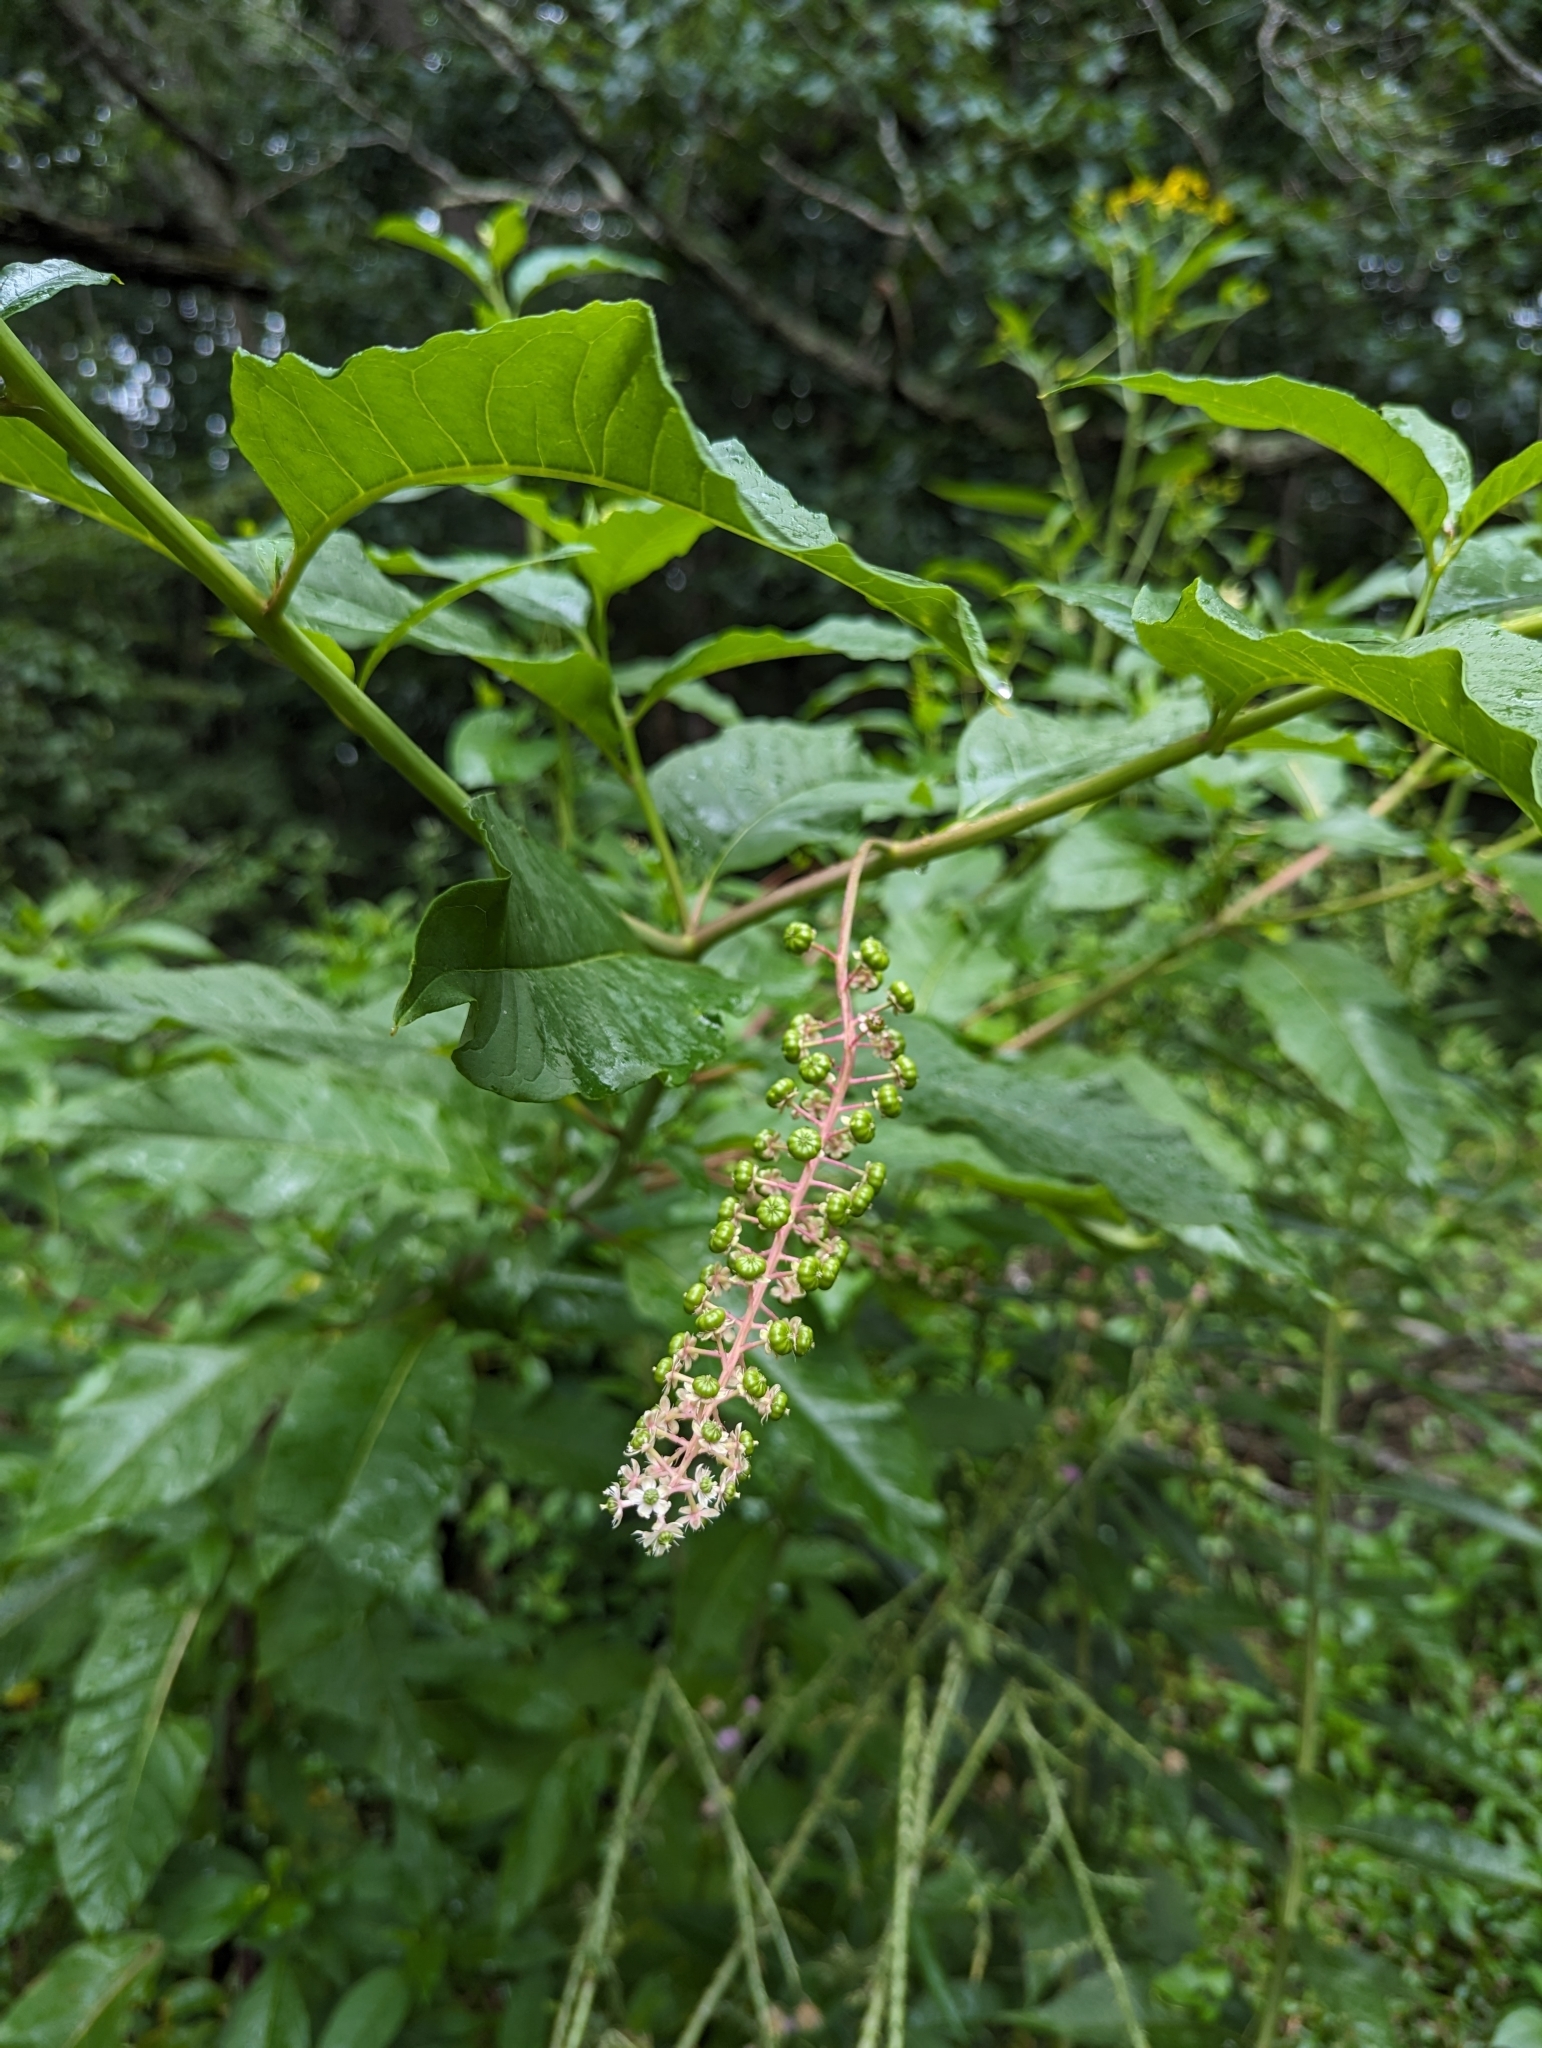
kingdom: Plantae
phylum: Tracheophyta
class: Magnoliopsida
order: Caryophyllales
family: Phytolaccaceae
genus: Phytolacca
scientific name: Phytolacca americana
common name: American pokeweed
